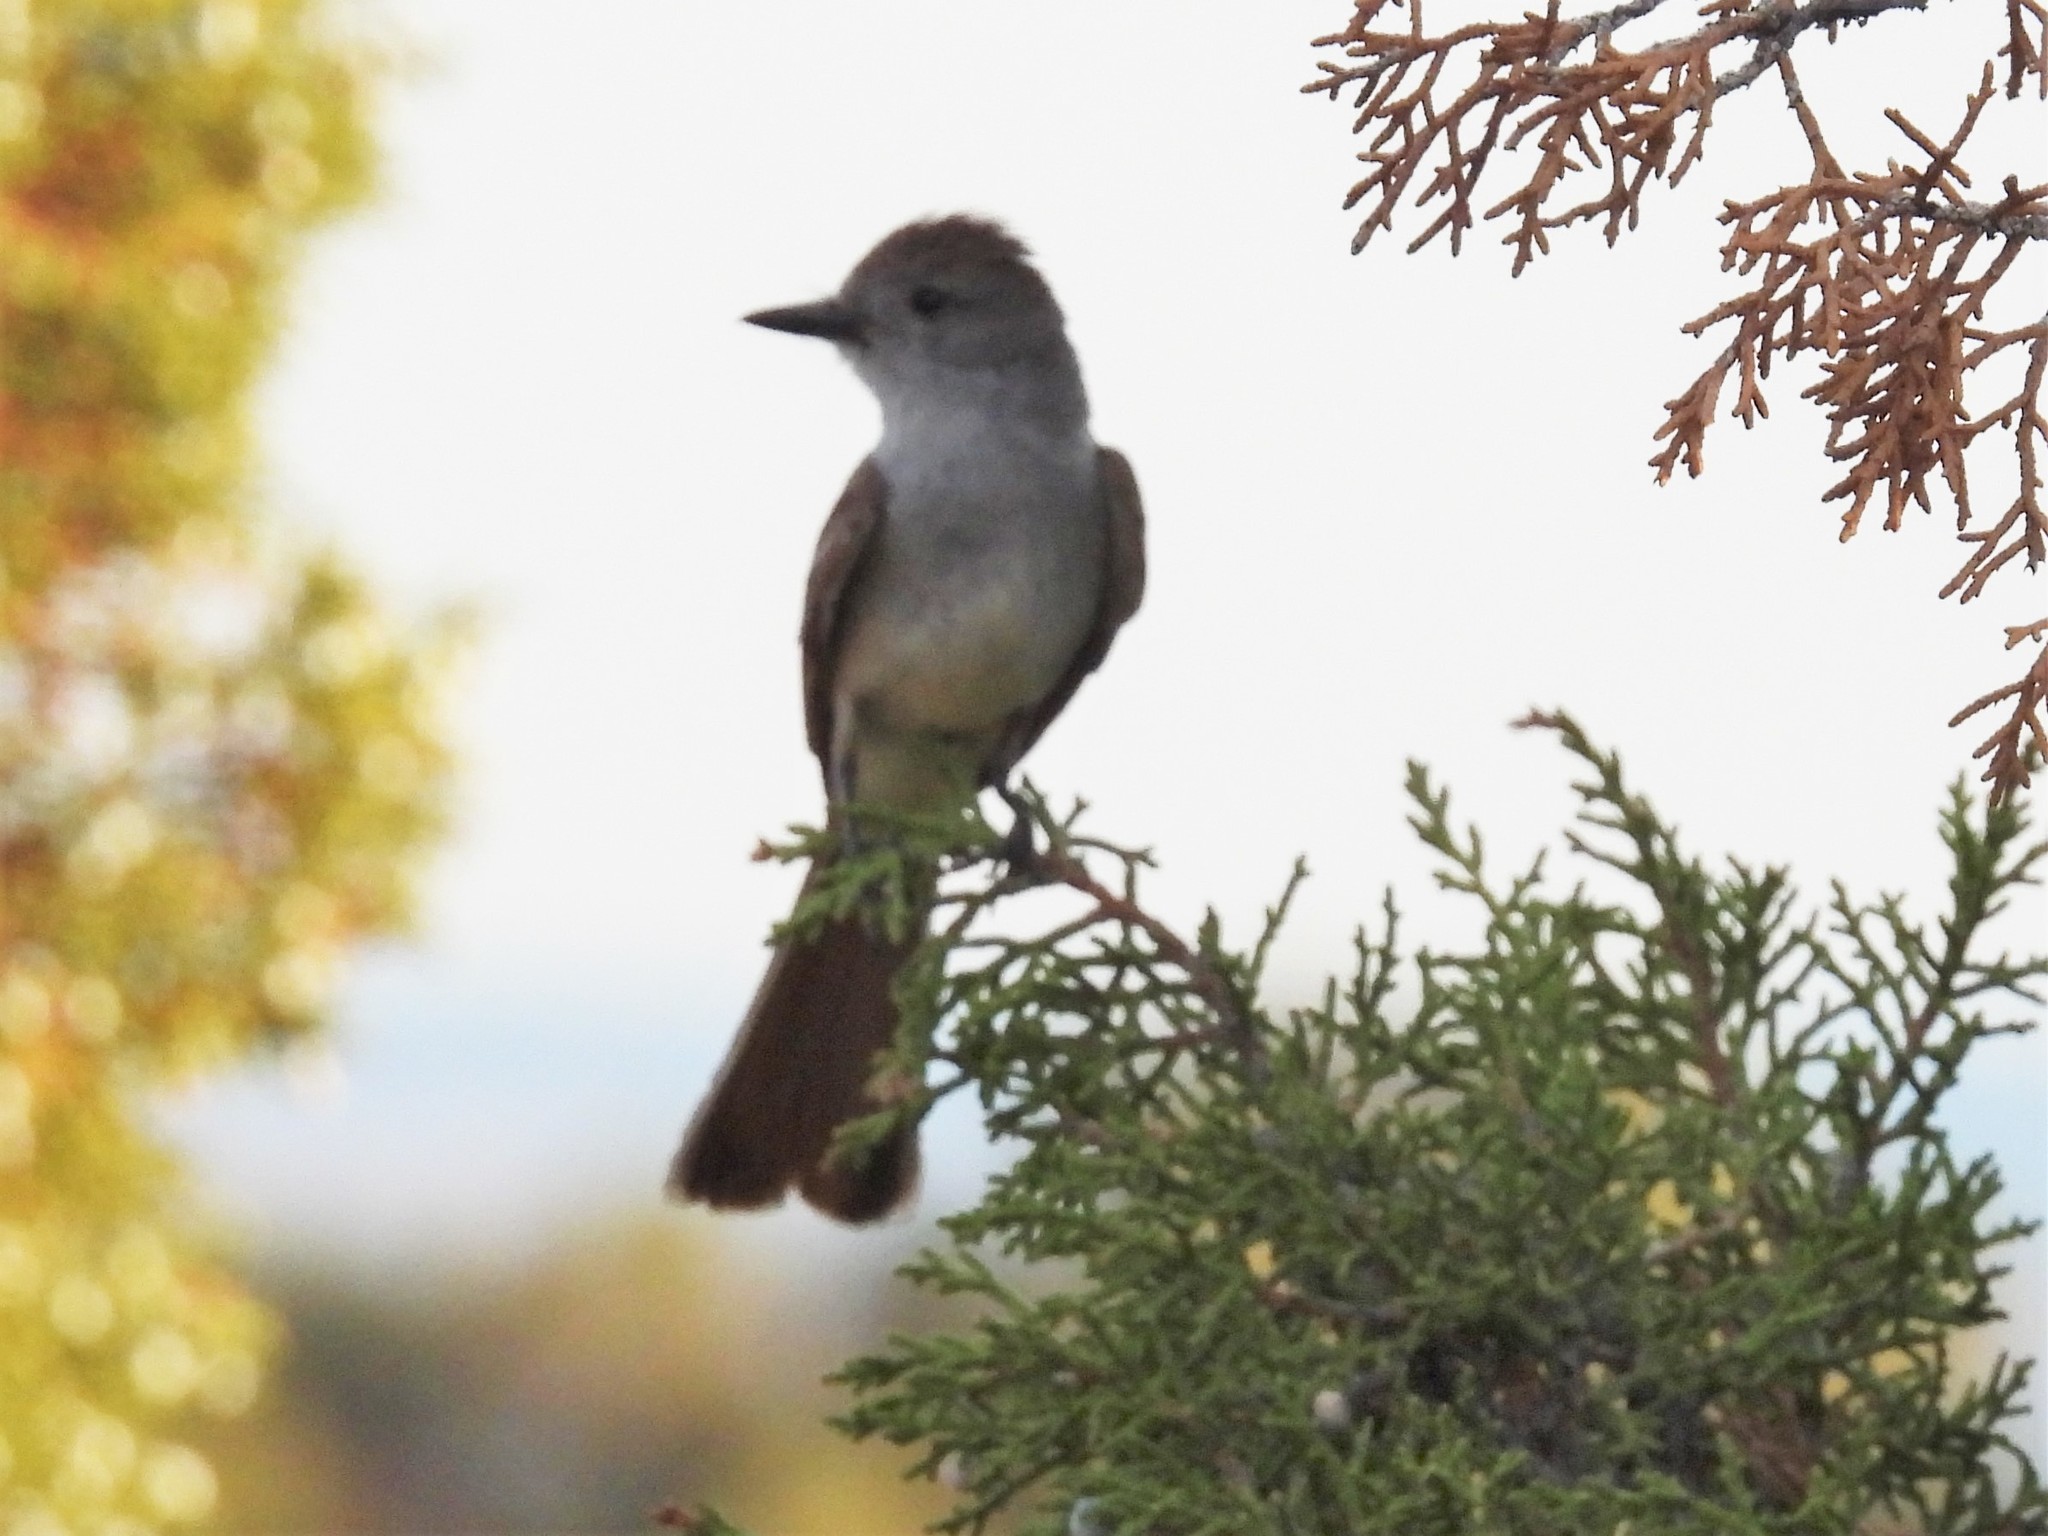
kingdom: Animalia
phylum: Chordata
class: Aves
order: Passeriformes
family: Tyrannidae
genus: Myiarchus
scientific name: Myiarchus cinerascens
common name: Ash-throated flycatcher
